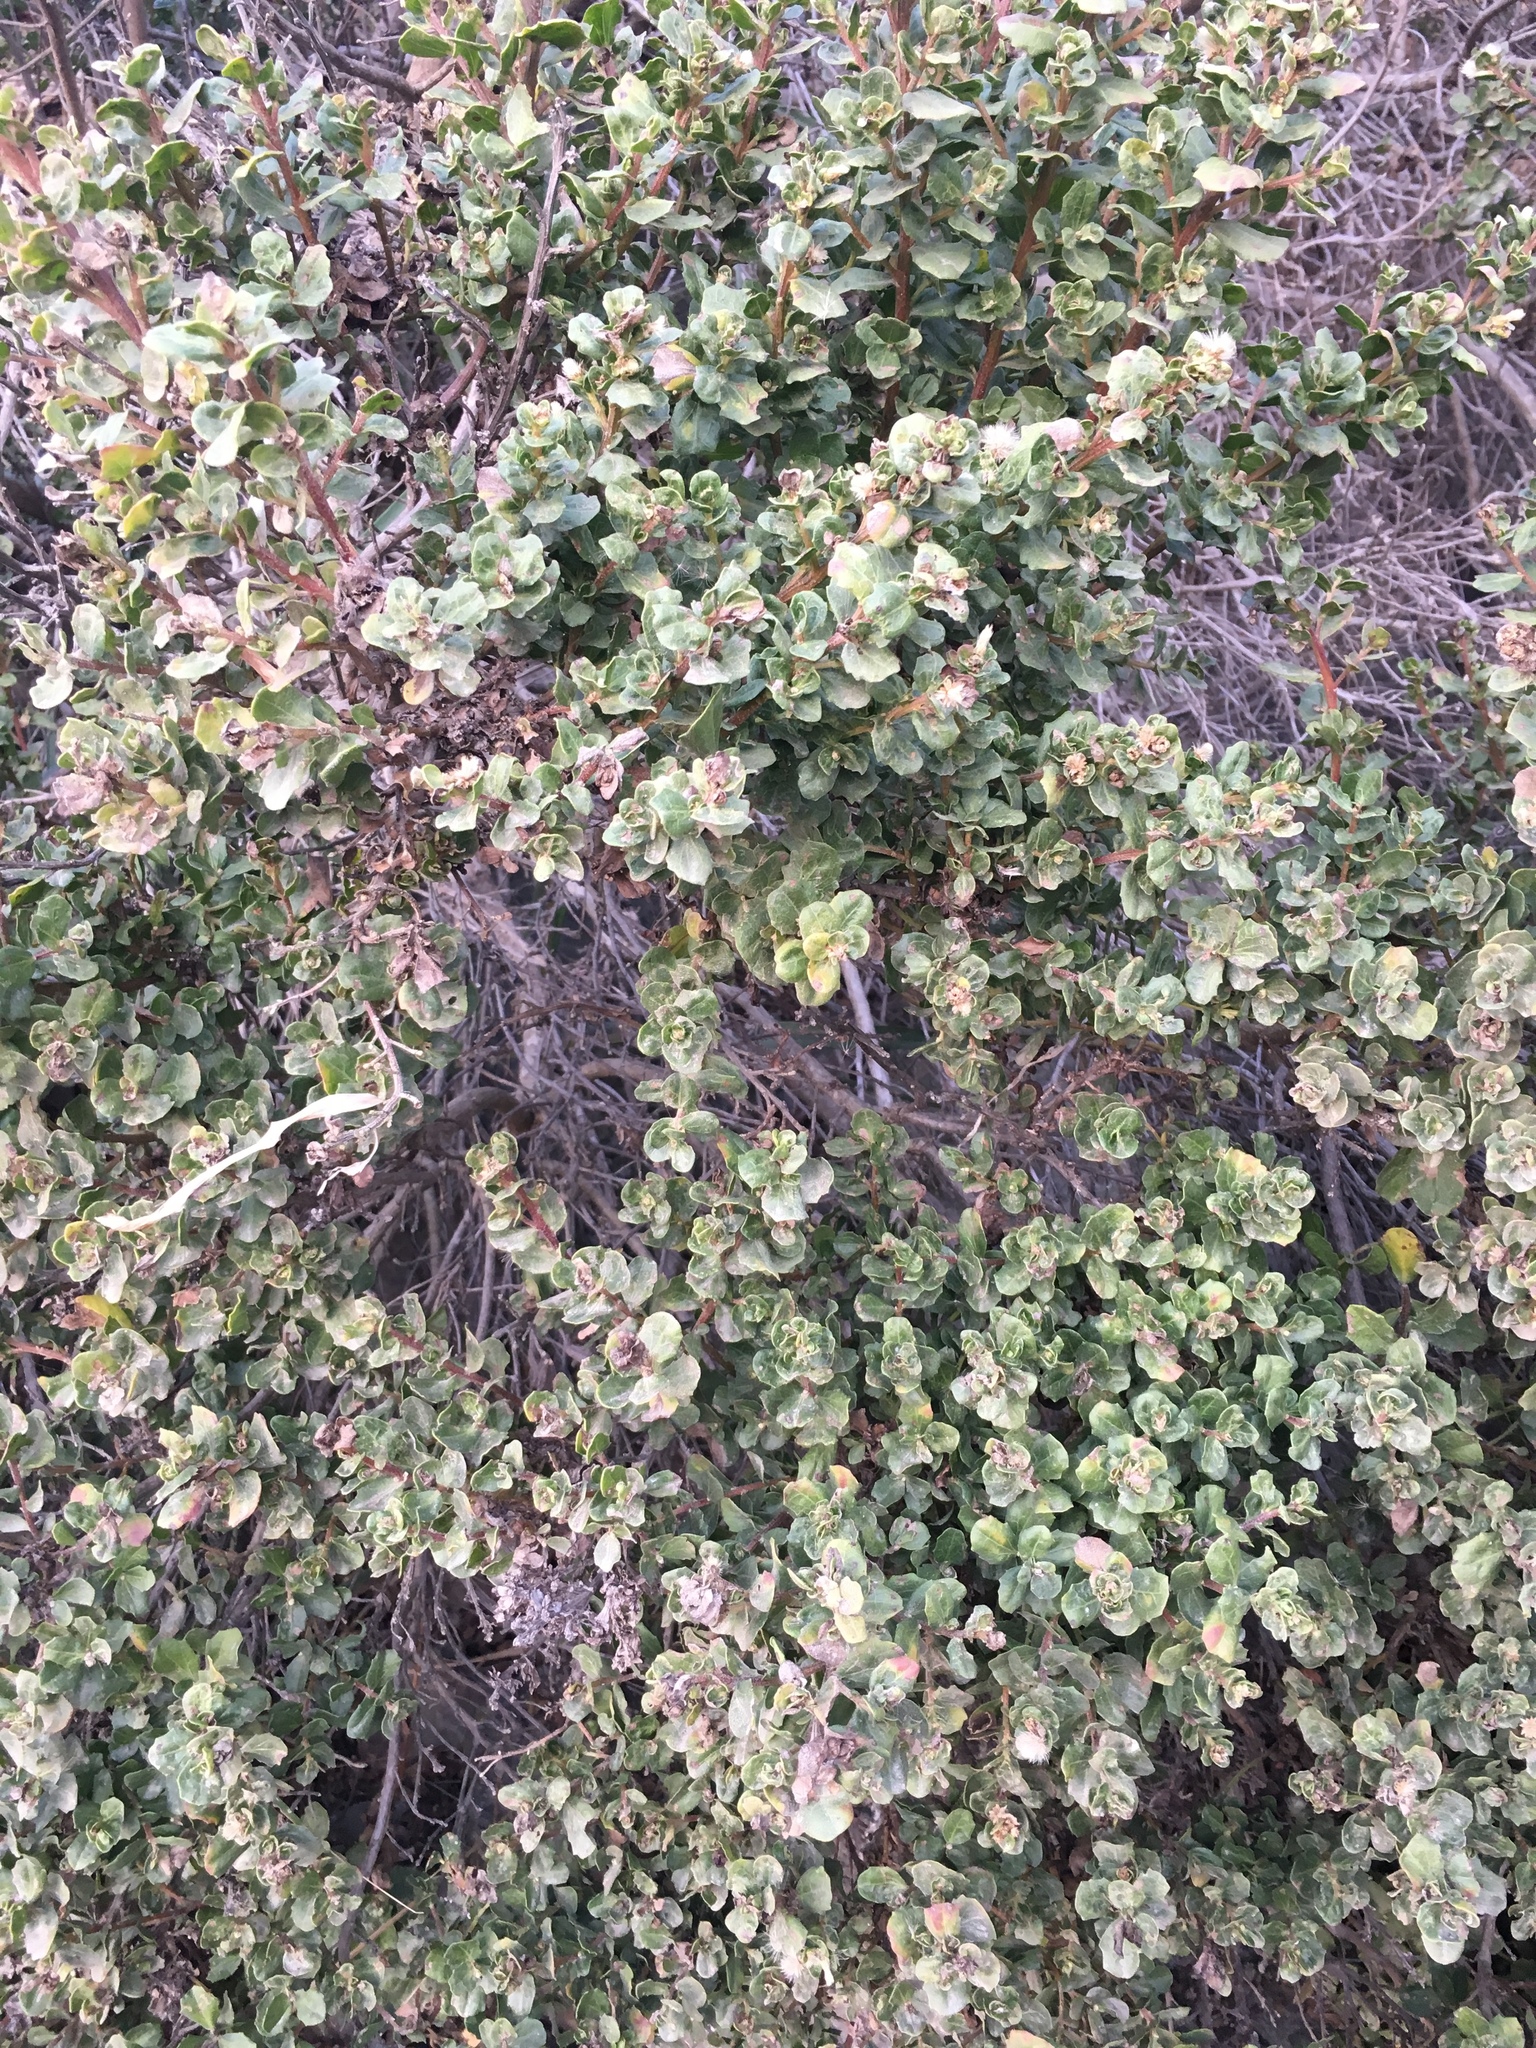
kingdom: Plantae
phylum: Tracheophyta
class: Magnoliopsida
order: Asterales
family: Asteraceae
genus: Baccharis
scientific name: Baccharis pilularis
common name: Coyotebrush
